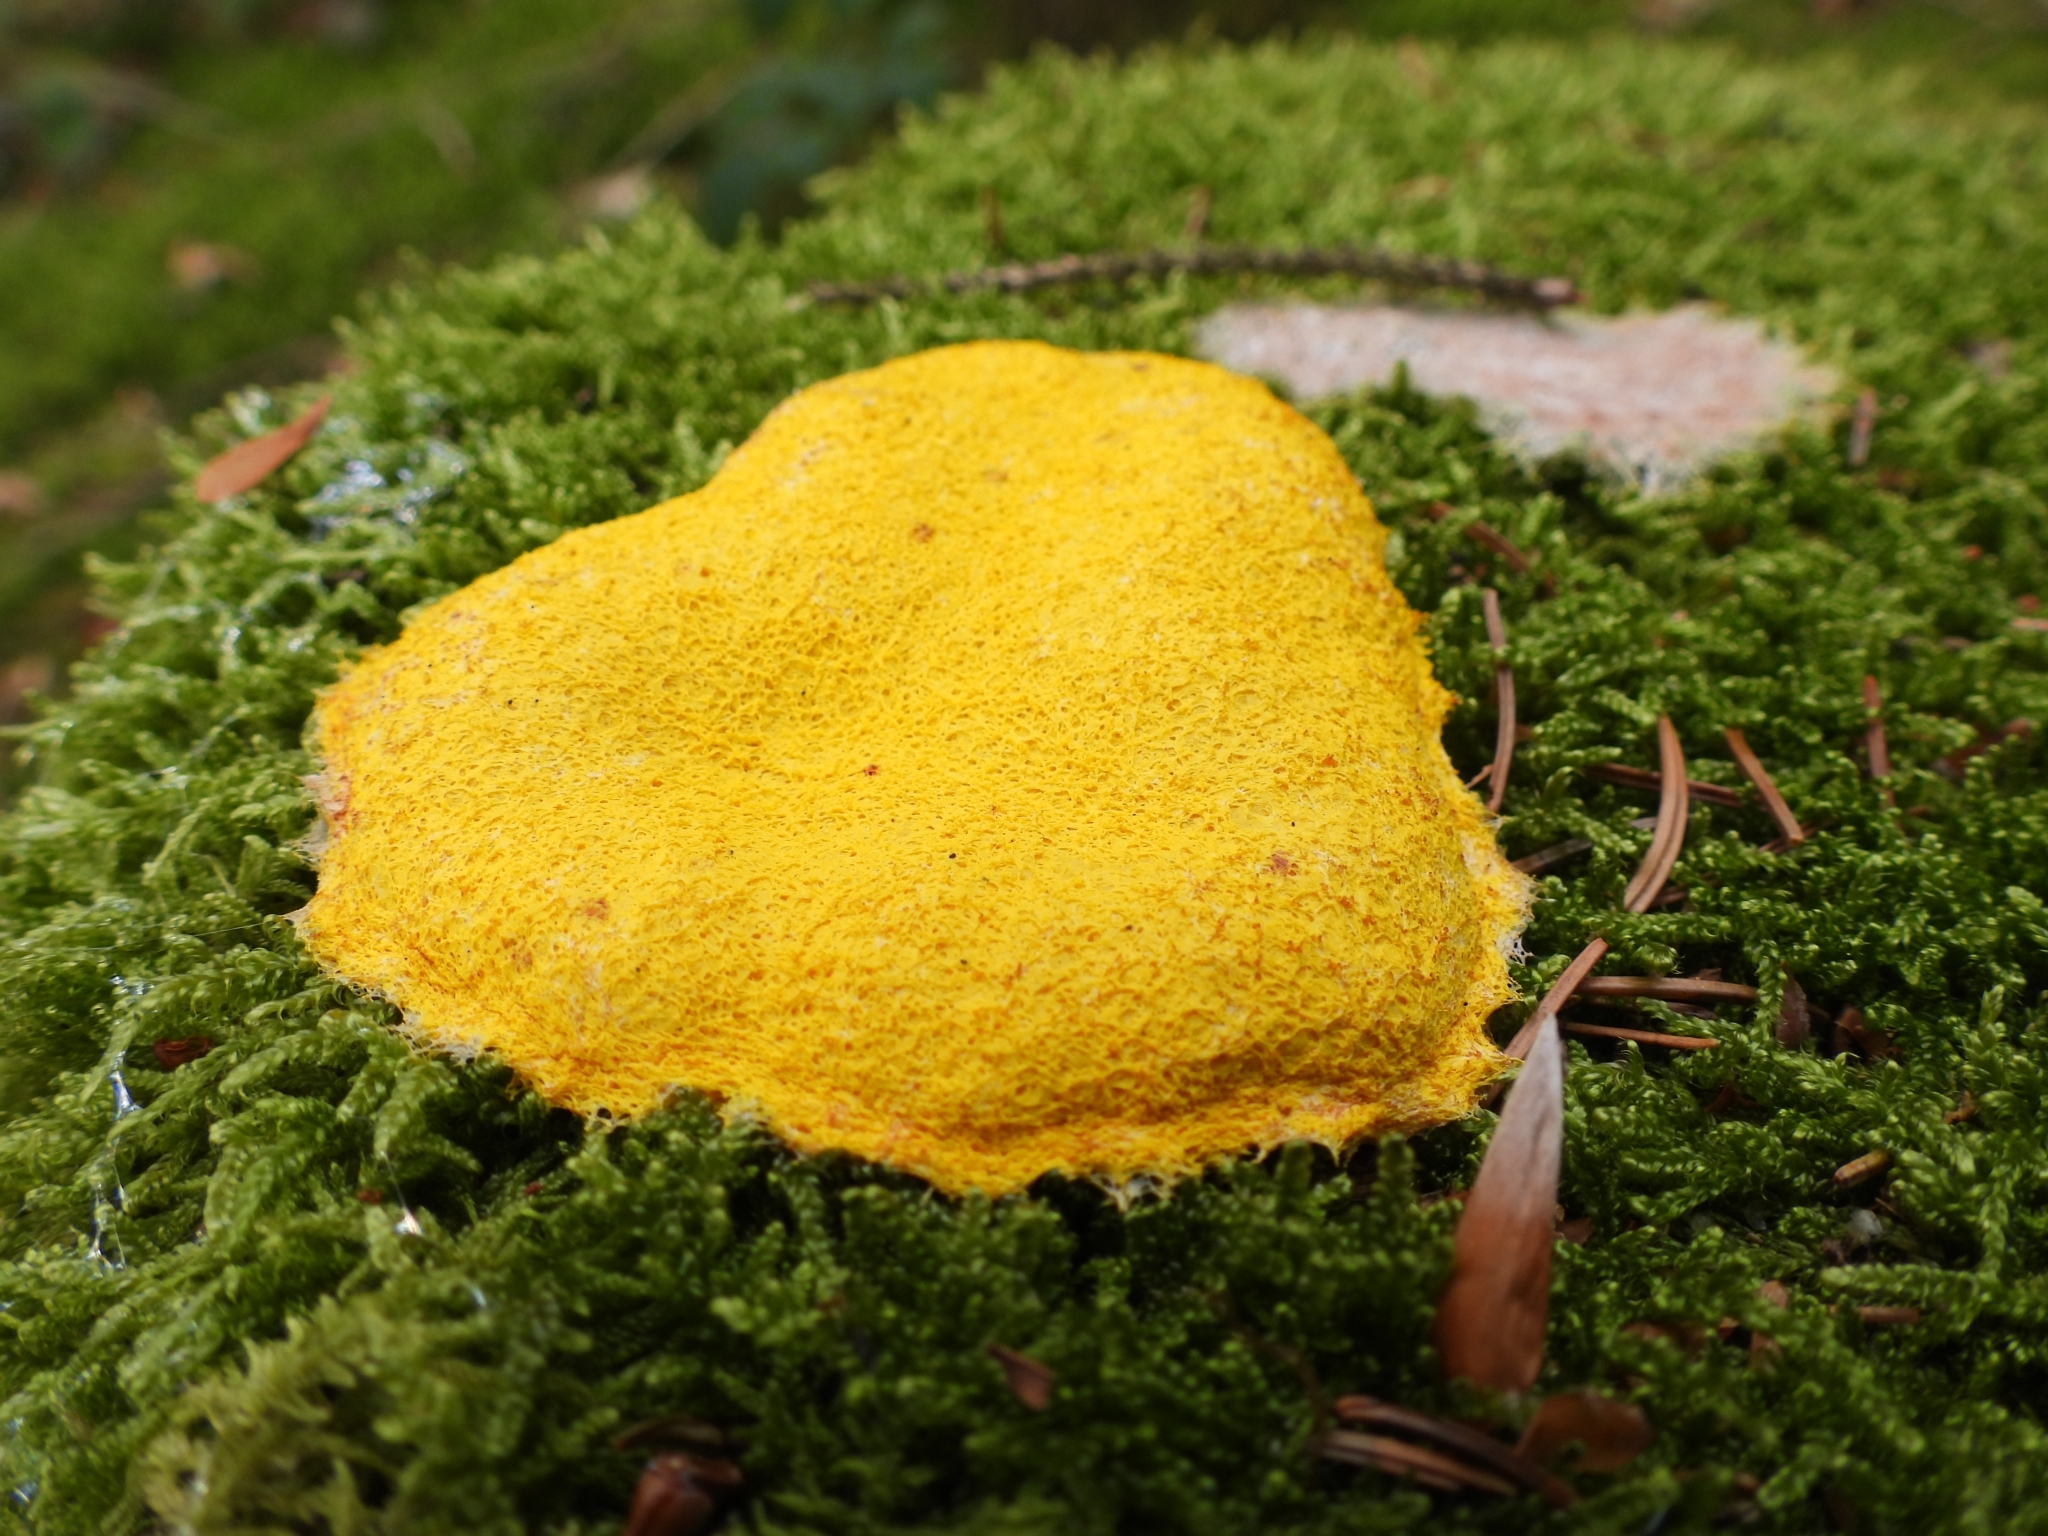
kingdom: Protozoa
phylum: Mycetozoa
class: Myxomycetes
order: Physarales
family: Physaraceae
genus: Fuligo
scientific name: Fuligo septica
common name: Dog vomit slime mold
